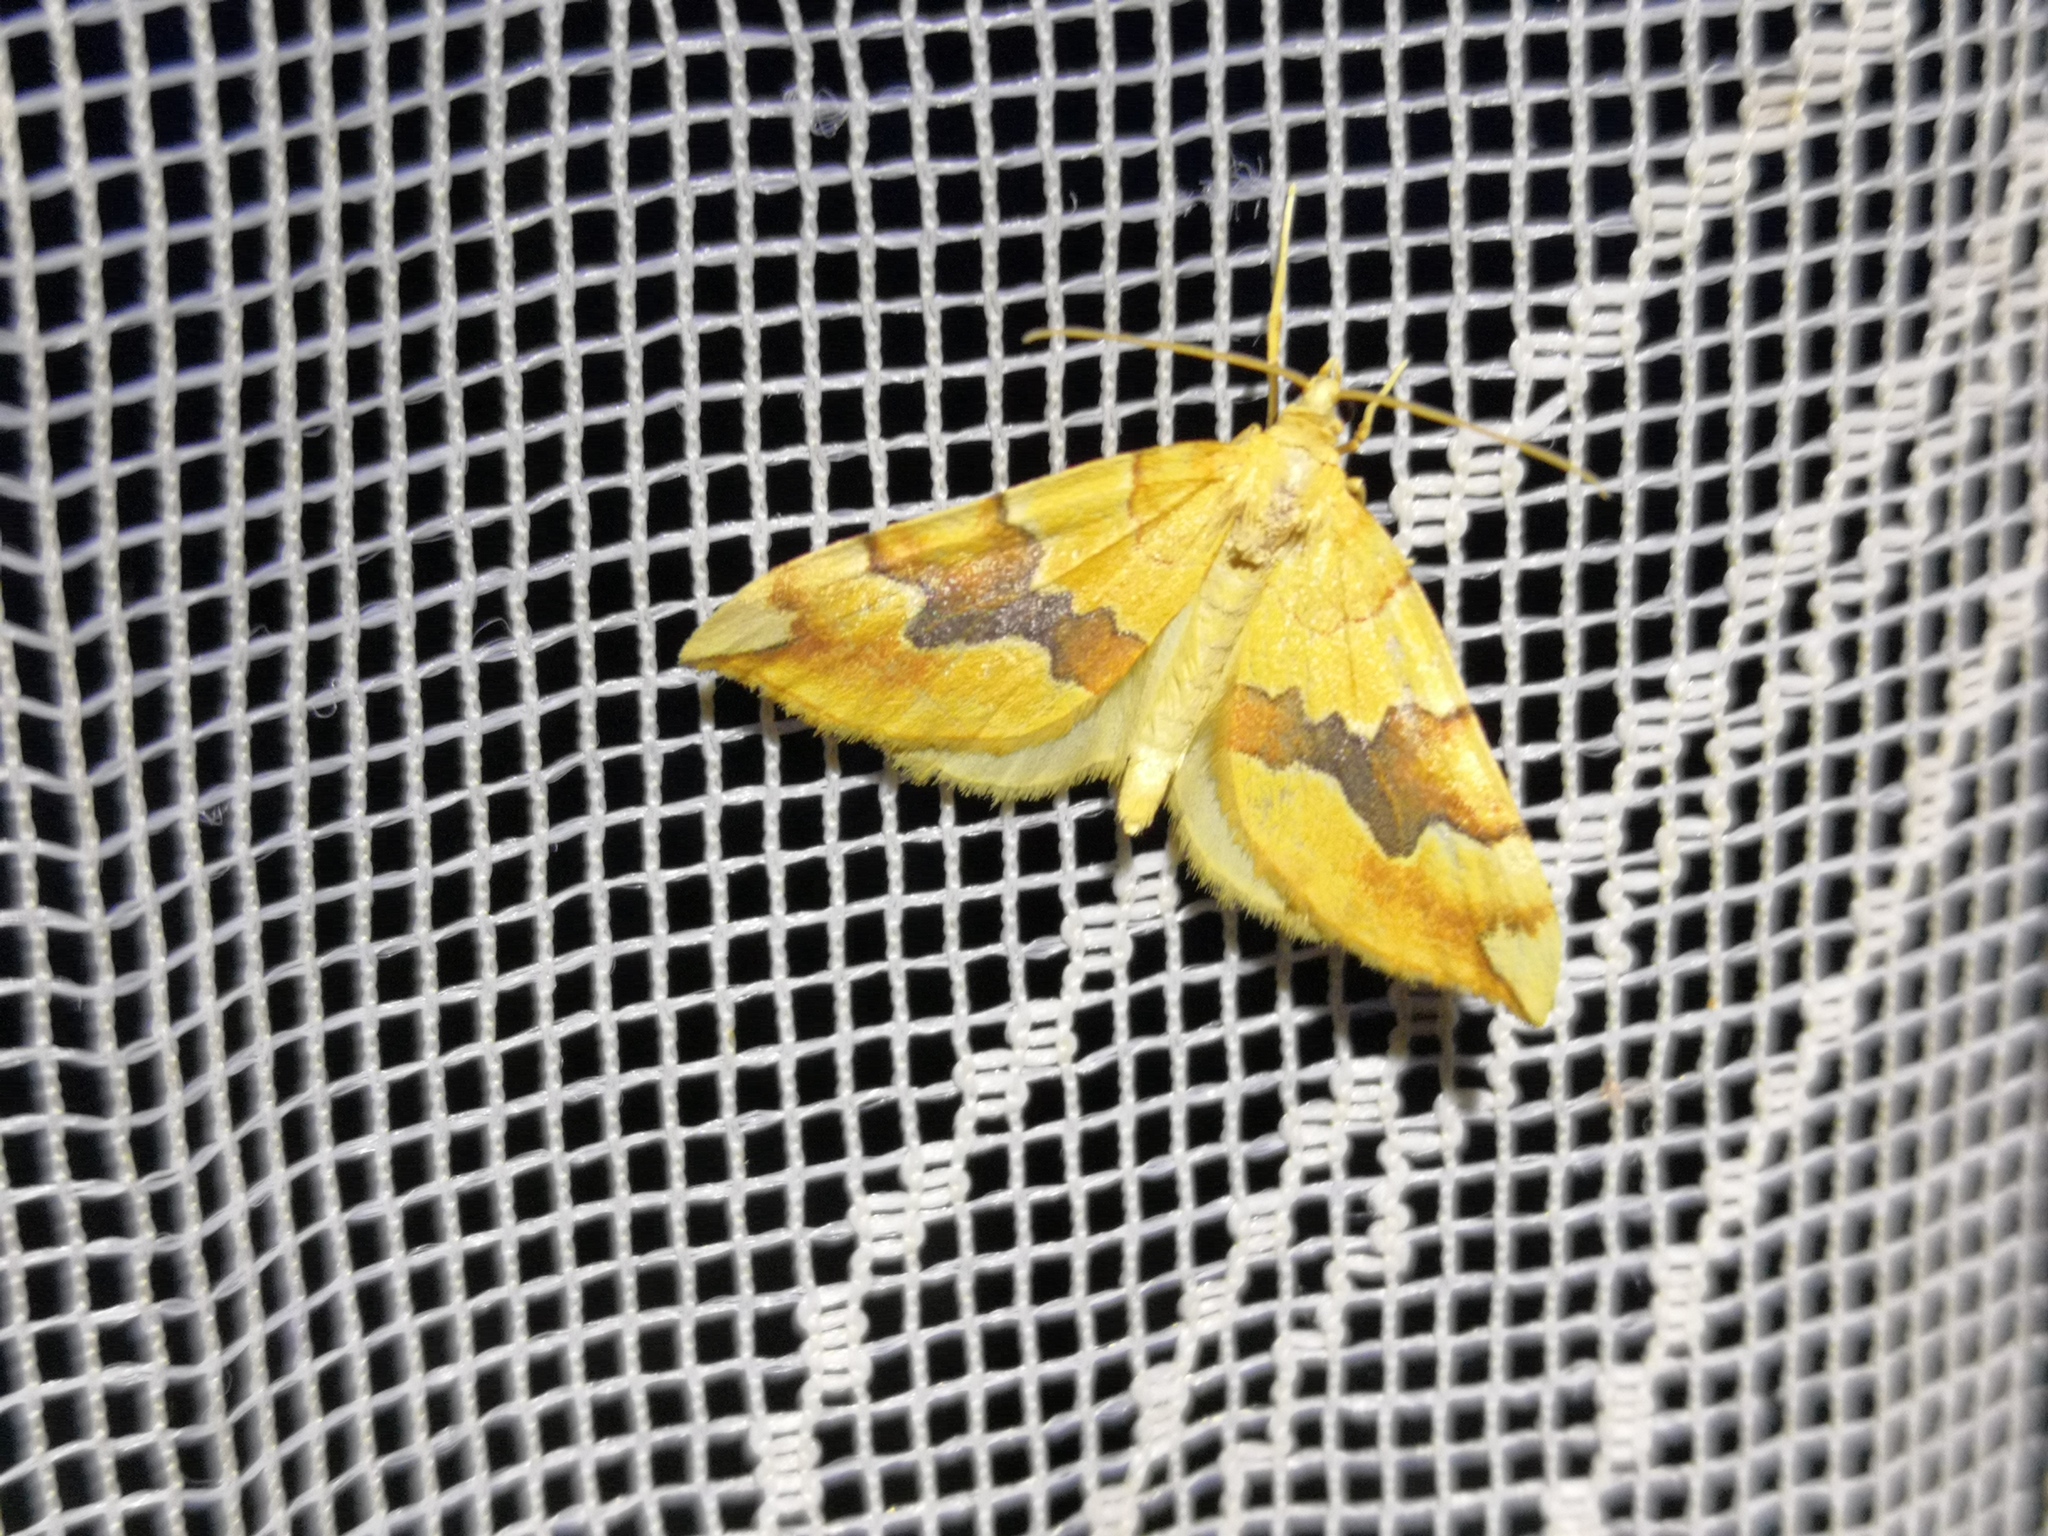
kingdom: Animalia
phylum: Arthropoda
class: Insecta
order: Lepidoptera
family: Geometridae
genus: Cidaria
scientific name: Cidaria fulvata
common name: Barred yellow
